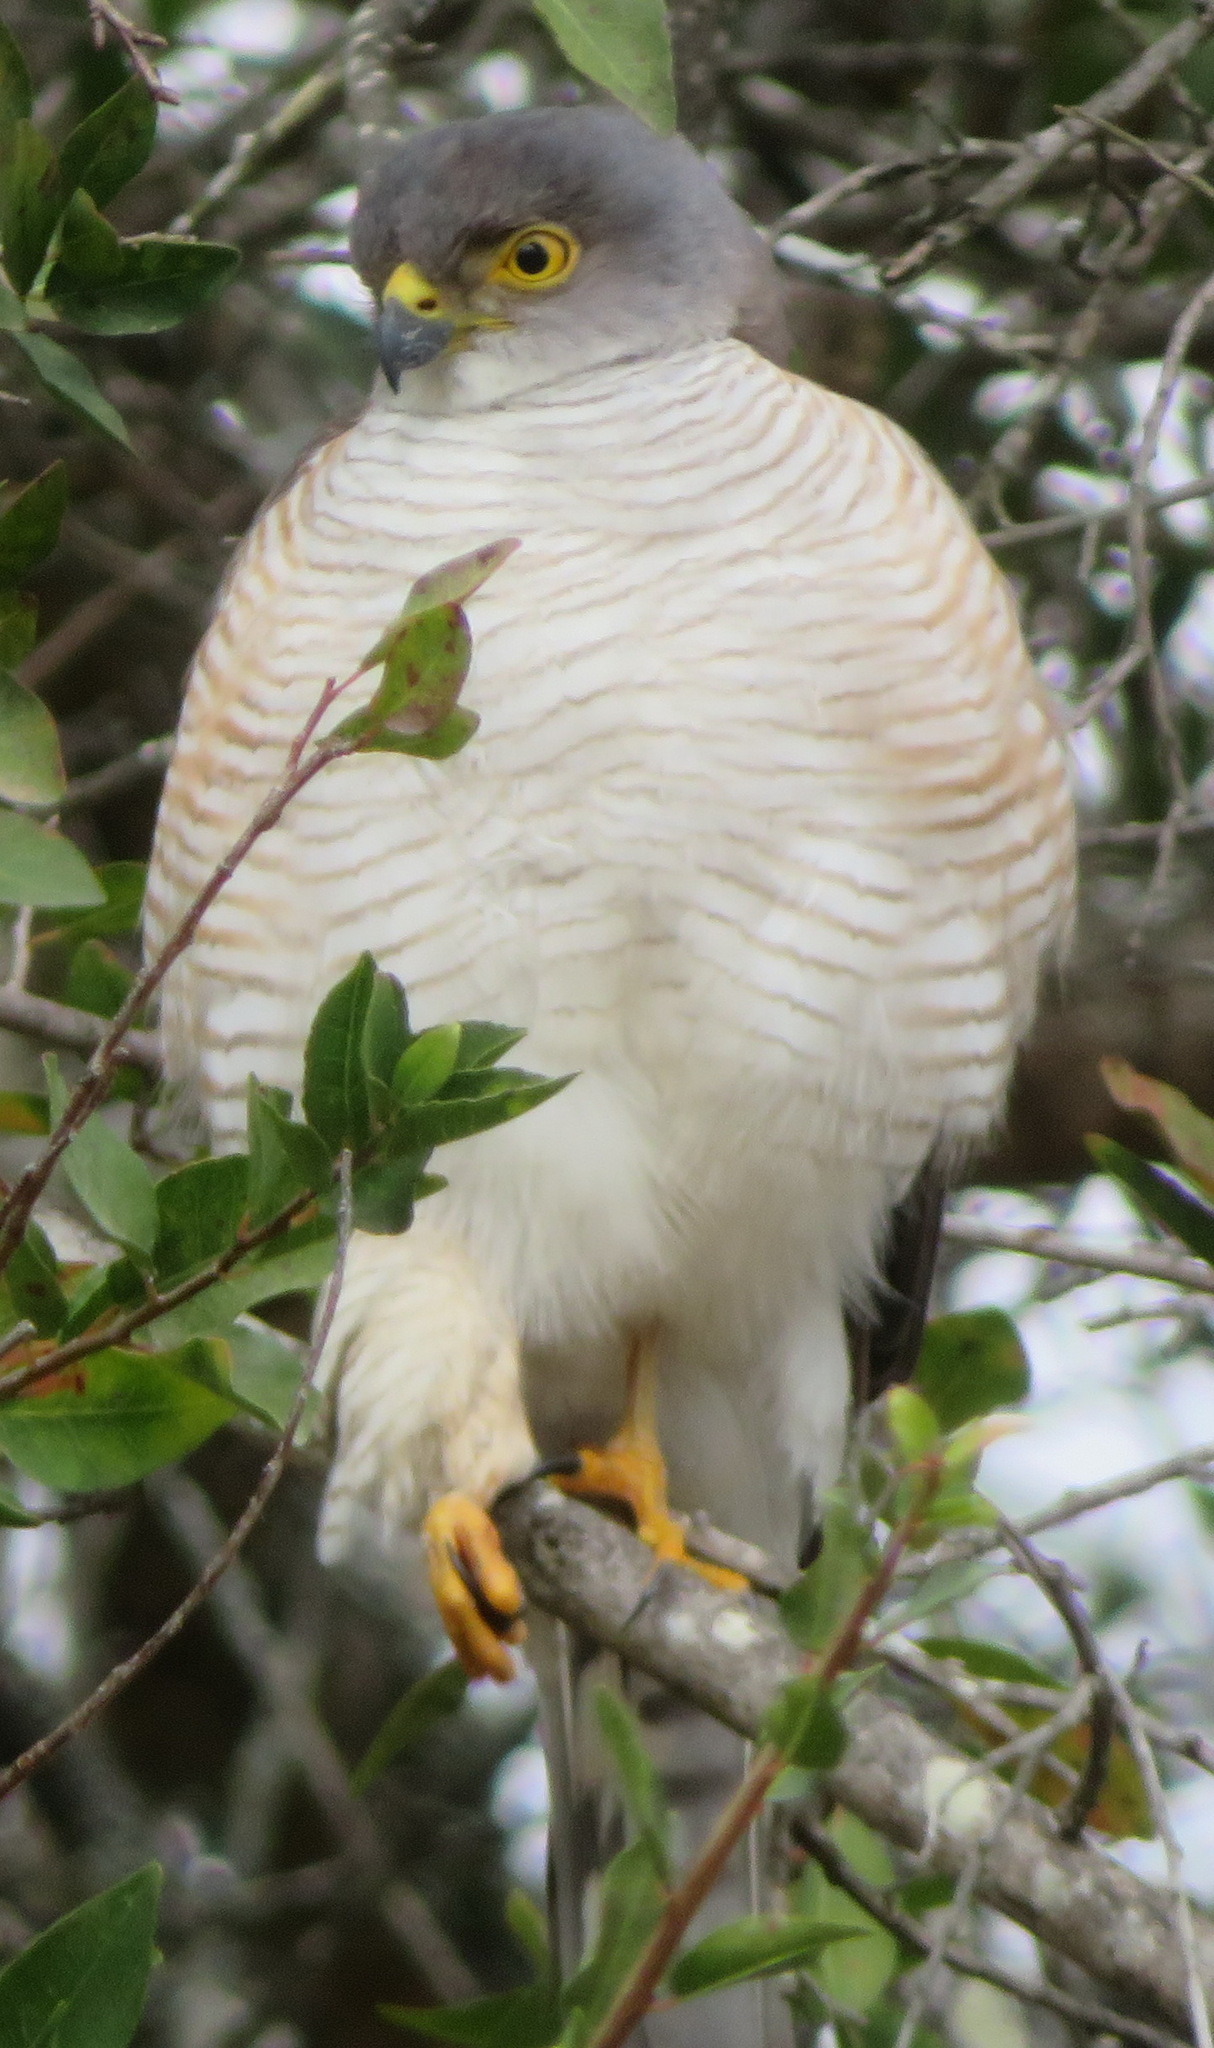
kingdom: Animalia
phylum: Chordata
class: Aves
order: Accipitriformes
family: Accipitridae
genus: Accipiter
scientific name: Accipiter minullus
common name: Little sparrowhawk
